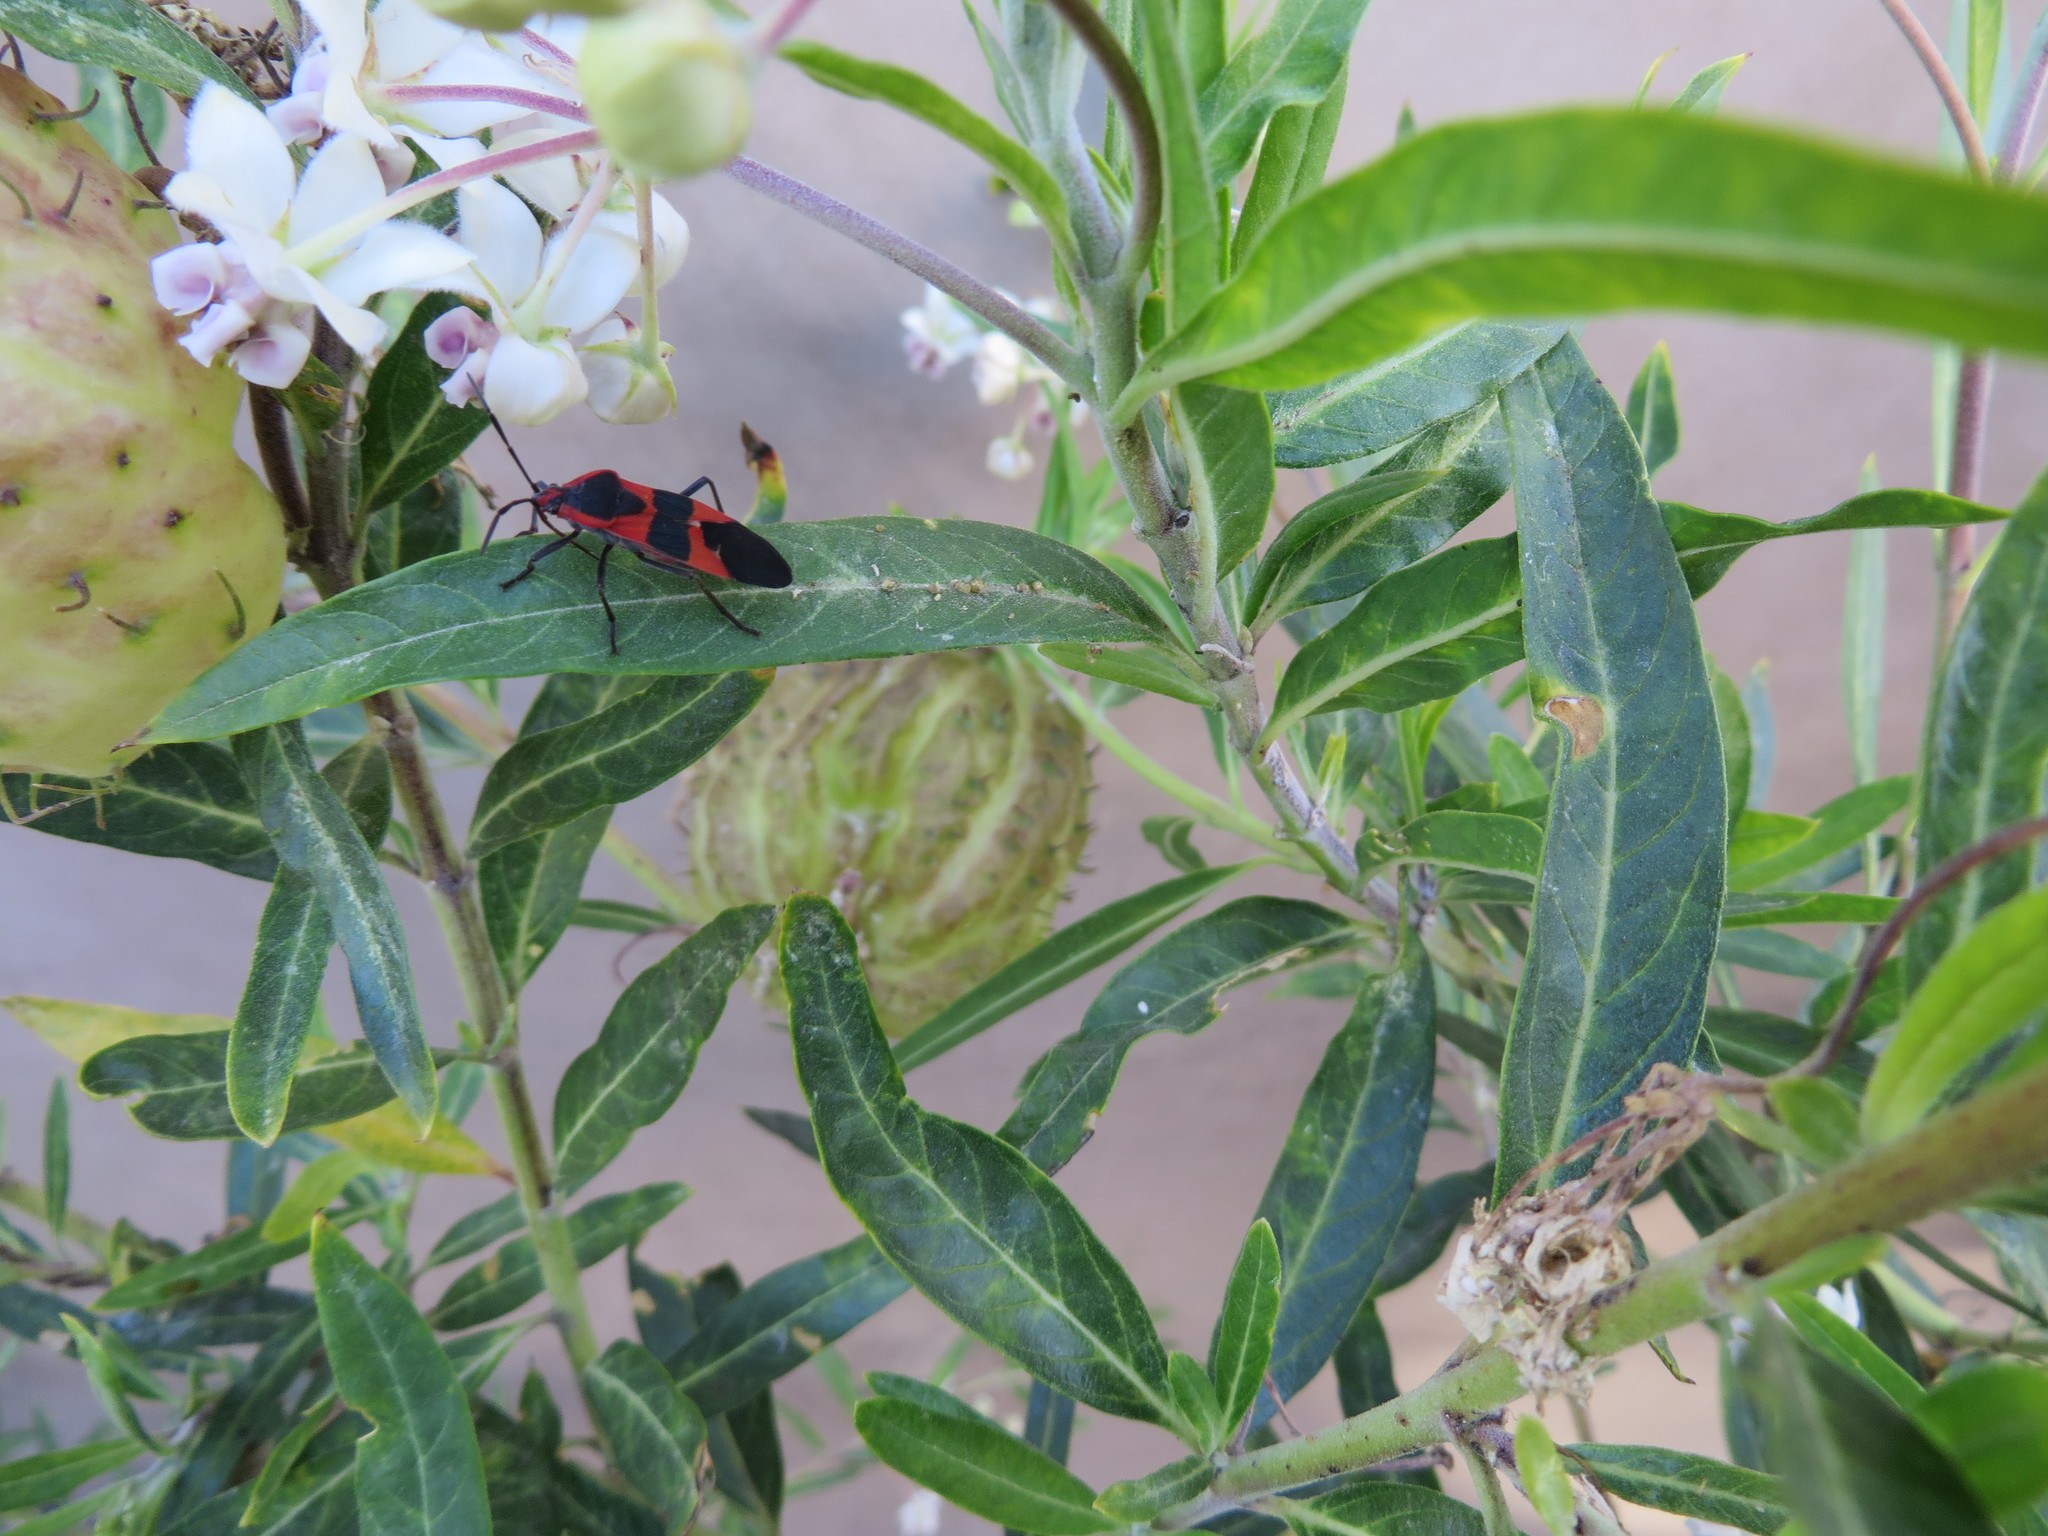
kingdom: Animalia
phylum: Arthropoda
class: Insecta
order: Hemiptera
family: Lygaeidae
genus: Oncopeltus
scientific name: Oncopeltus fasciatus
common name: Large milkweed bug
